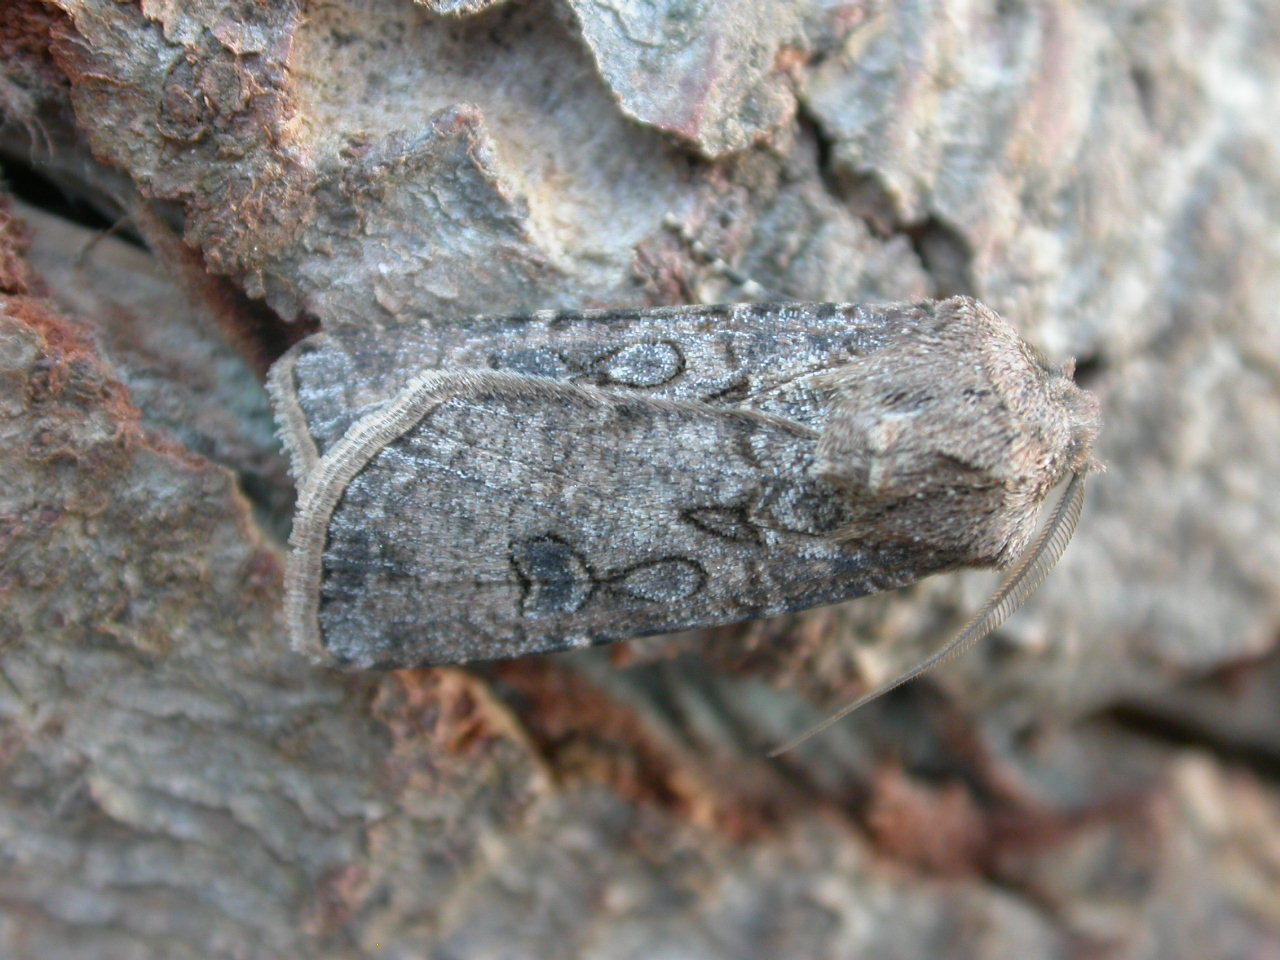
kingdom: Animalia
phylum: Arthropoda
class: Insecta
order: Lepidoptera
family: Noctuidae
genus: Agrotis
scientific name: Agrotis segetum
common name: Turnip moth
